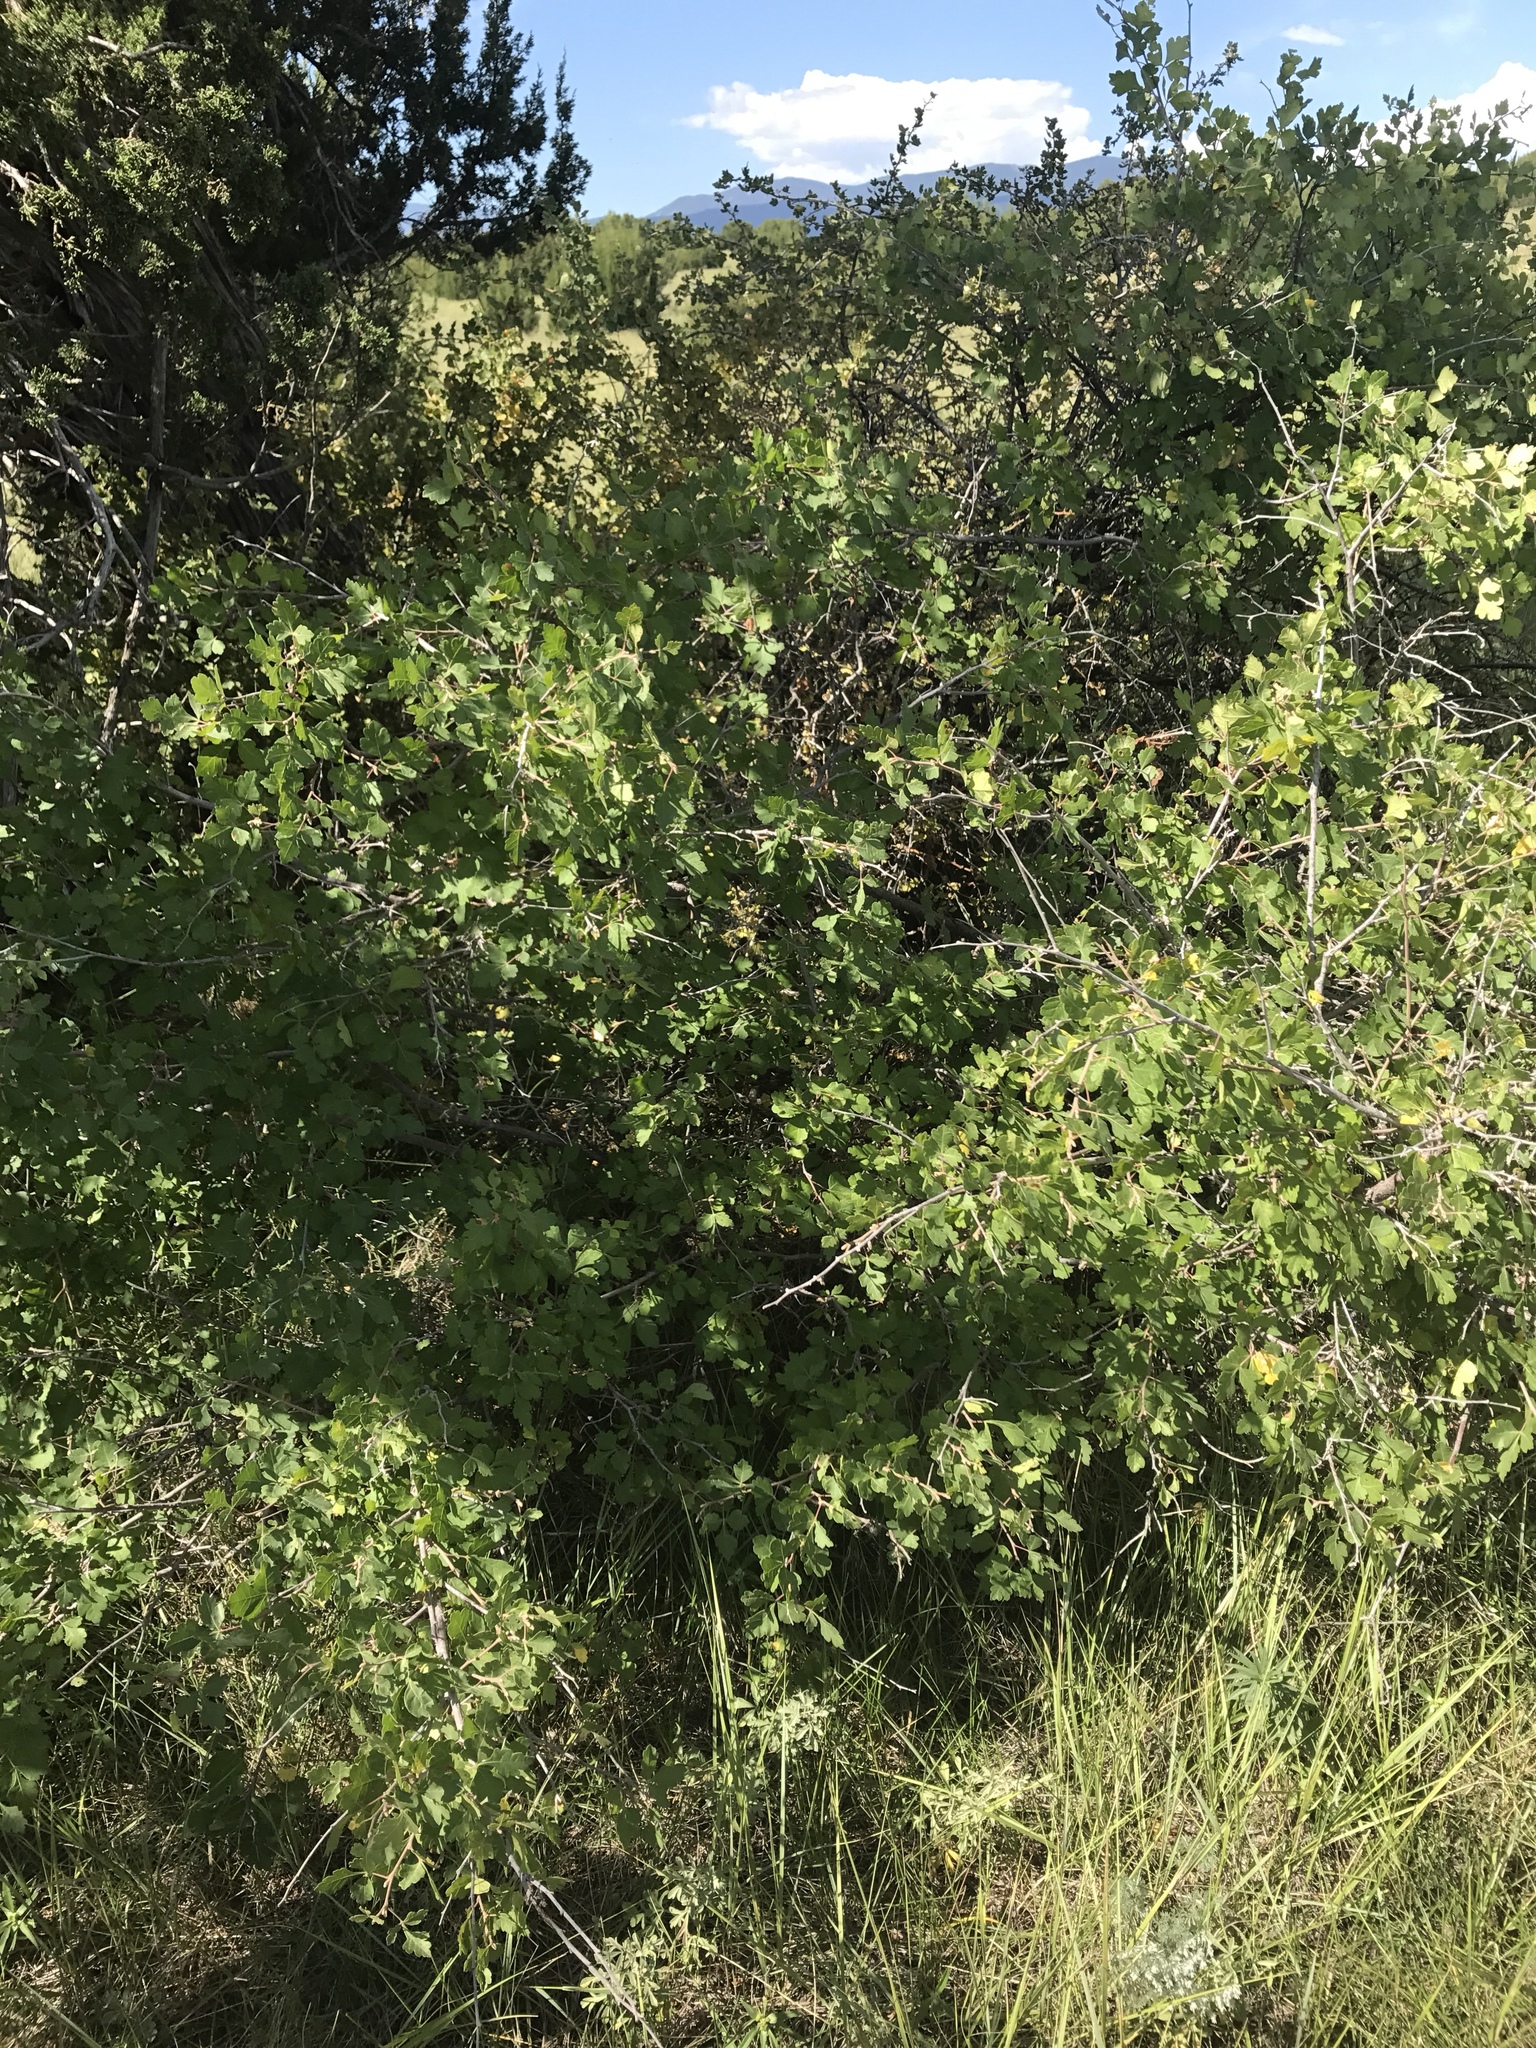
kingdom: Plantae
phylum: Tracheophyta
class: Magnoliopsida
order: Sapindales
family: Anacardiaceae
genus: Rhus
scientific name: Rhus aromatica
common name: Aromatic sumac
